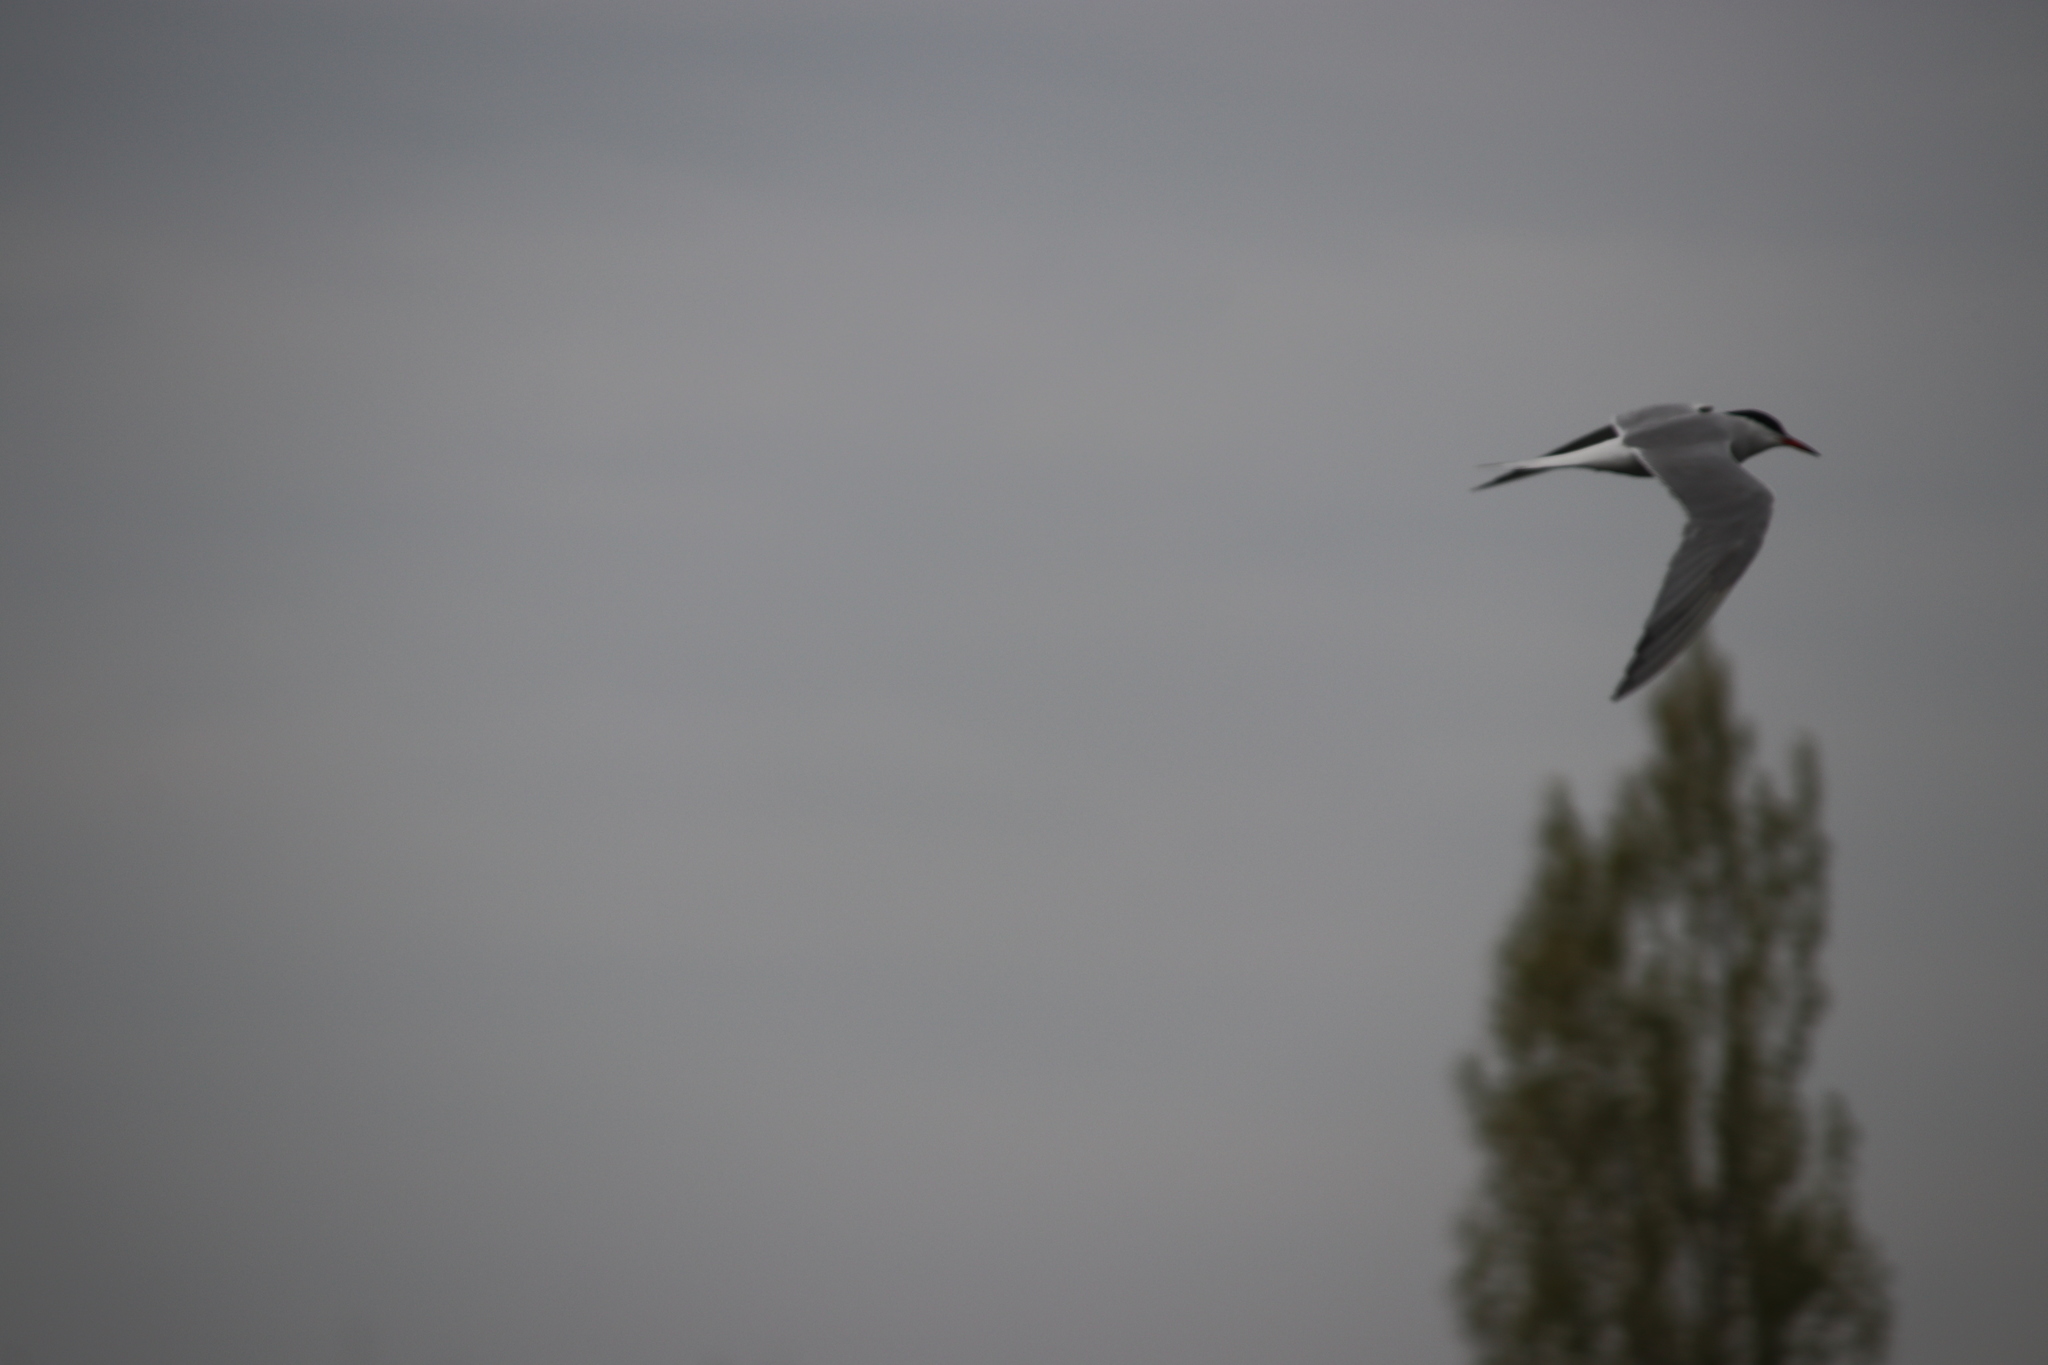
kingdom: Animalia
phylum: Chordata
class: Aves
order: Charadriiformes
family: Laridae
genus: Sterna
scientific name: Sterna hirundo
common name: Common tern
